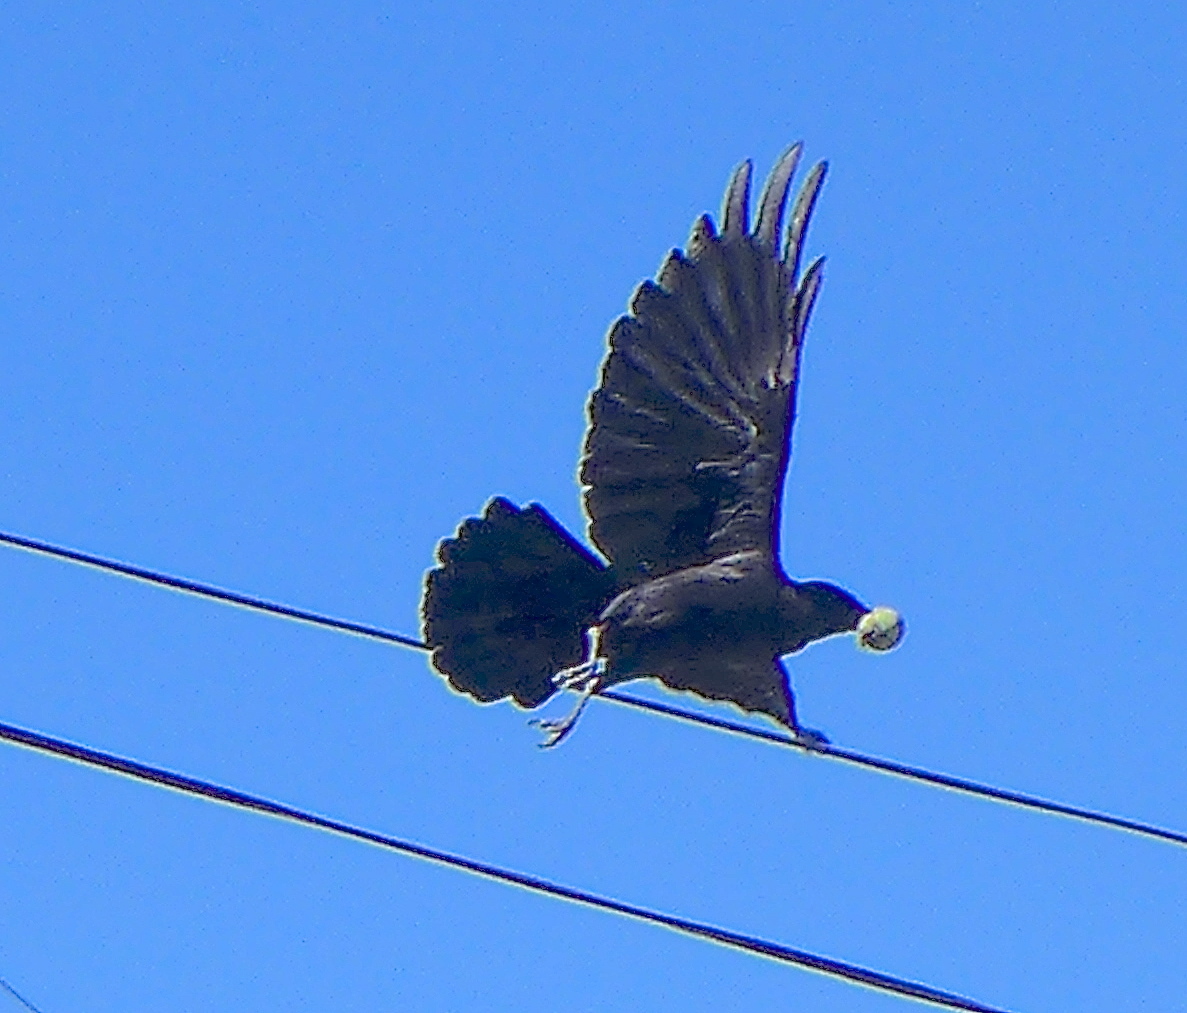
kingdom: Animalia
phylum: Chordata
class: Aves
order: Passeriformes
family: Corvidae
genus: Corvus
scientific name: Corvus brachyrhynchos
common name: American crow
